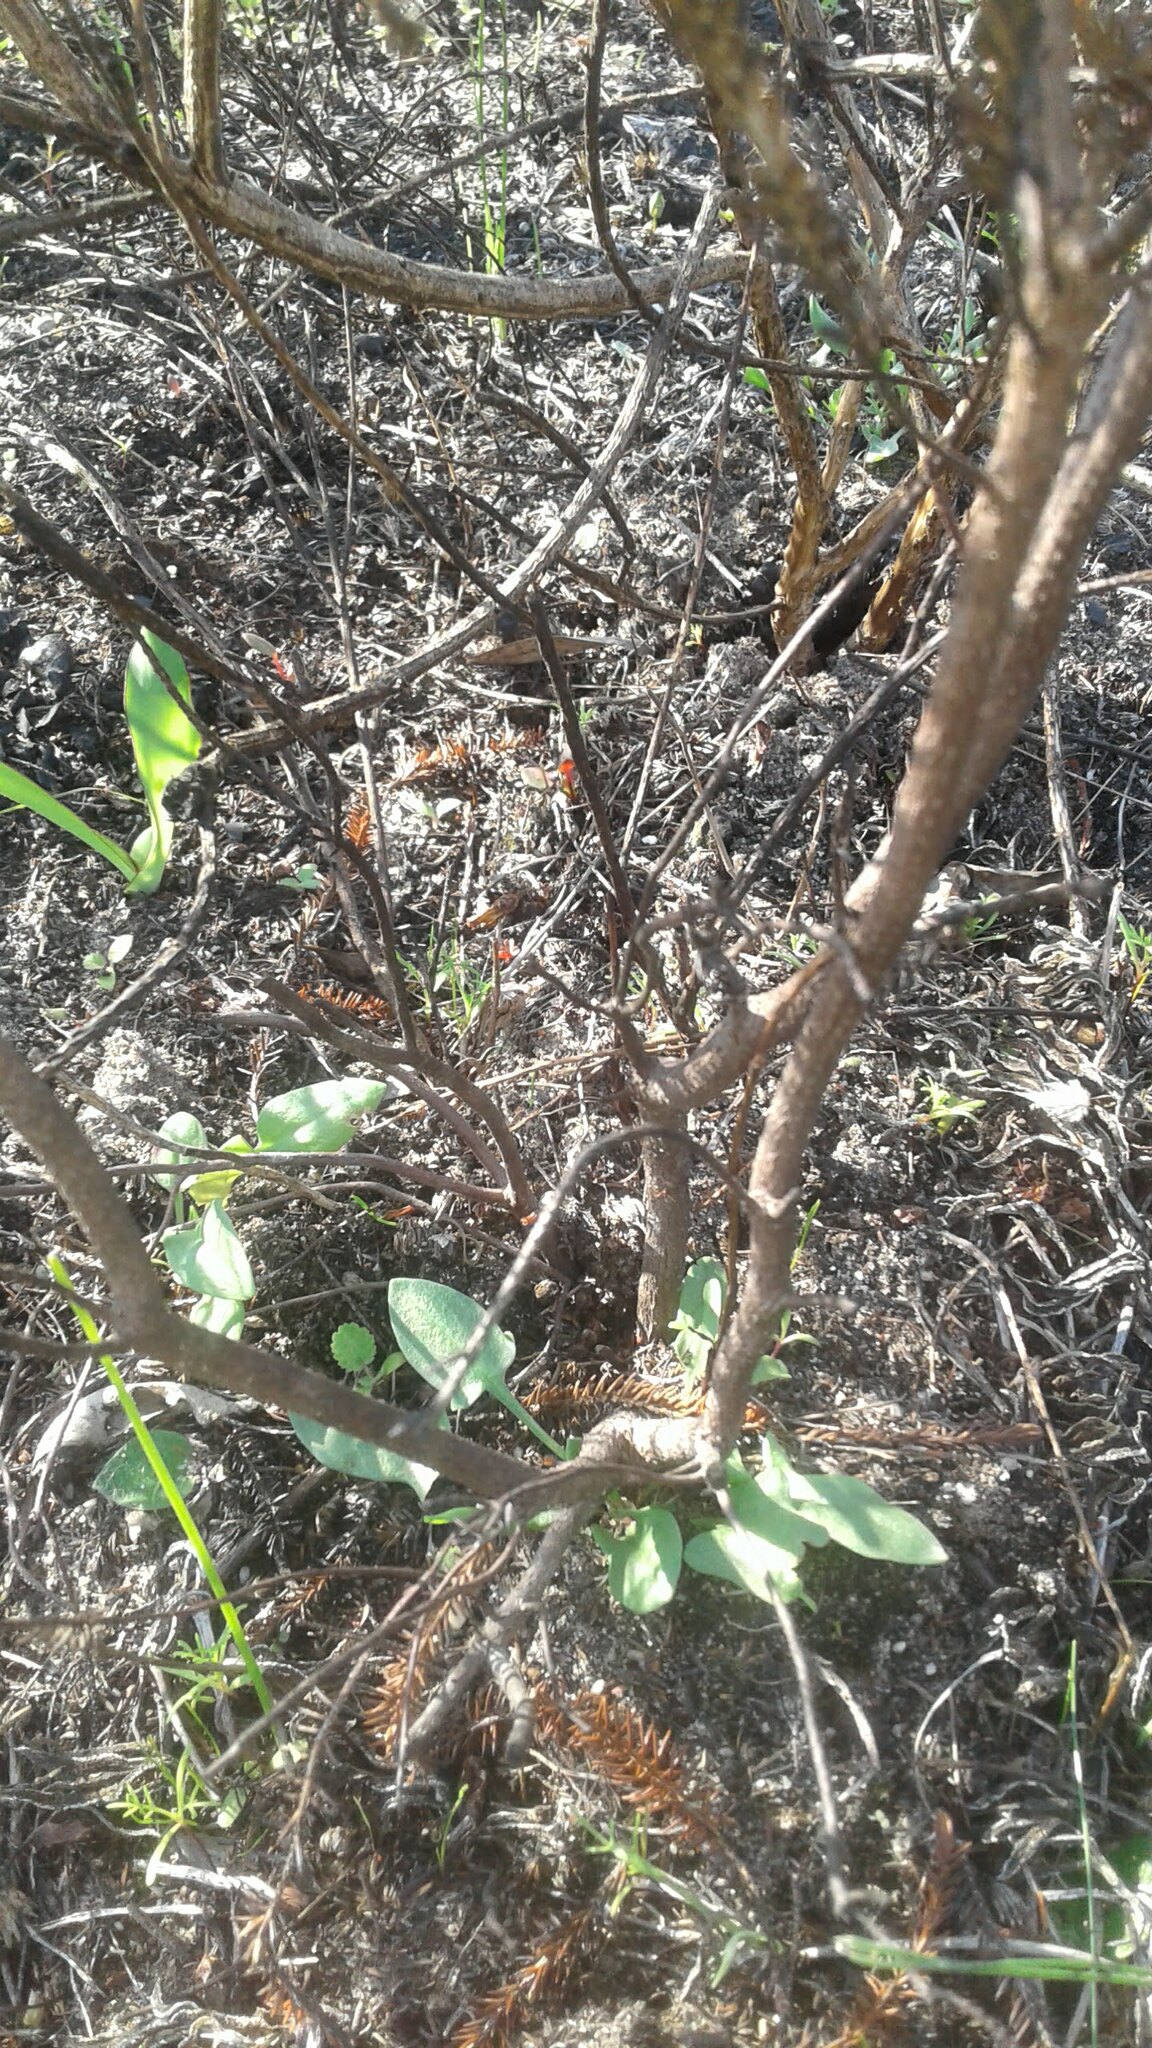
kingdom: Plantae
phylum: Tracheophyta
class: Magnoliopsida
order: Ericales
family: Ericaceae
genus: Erica
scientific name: Erica mammosa
